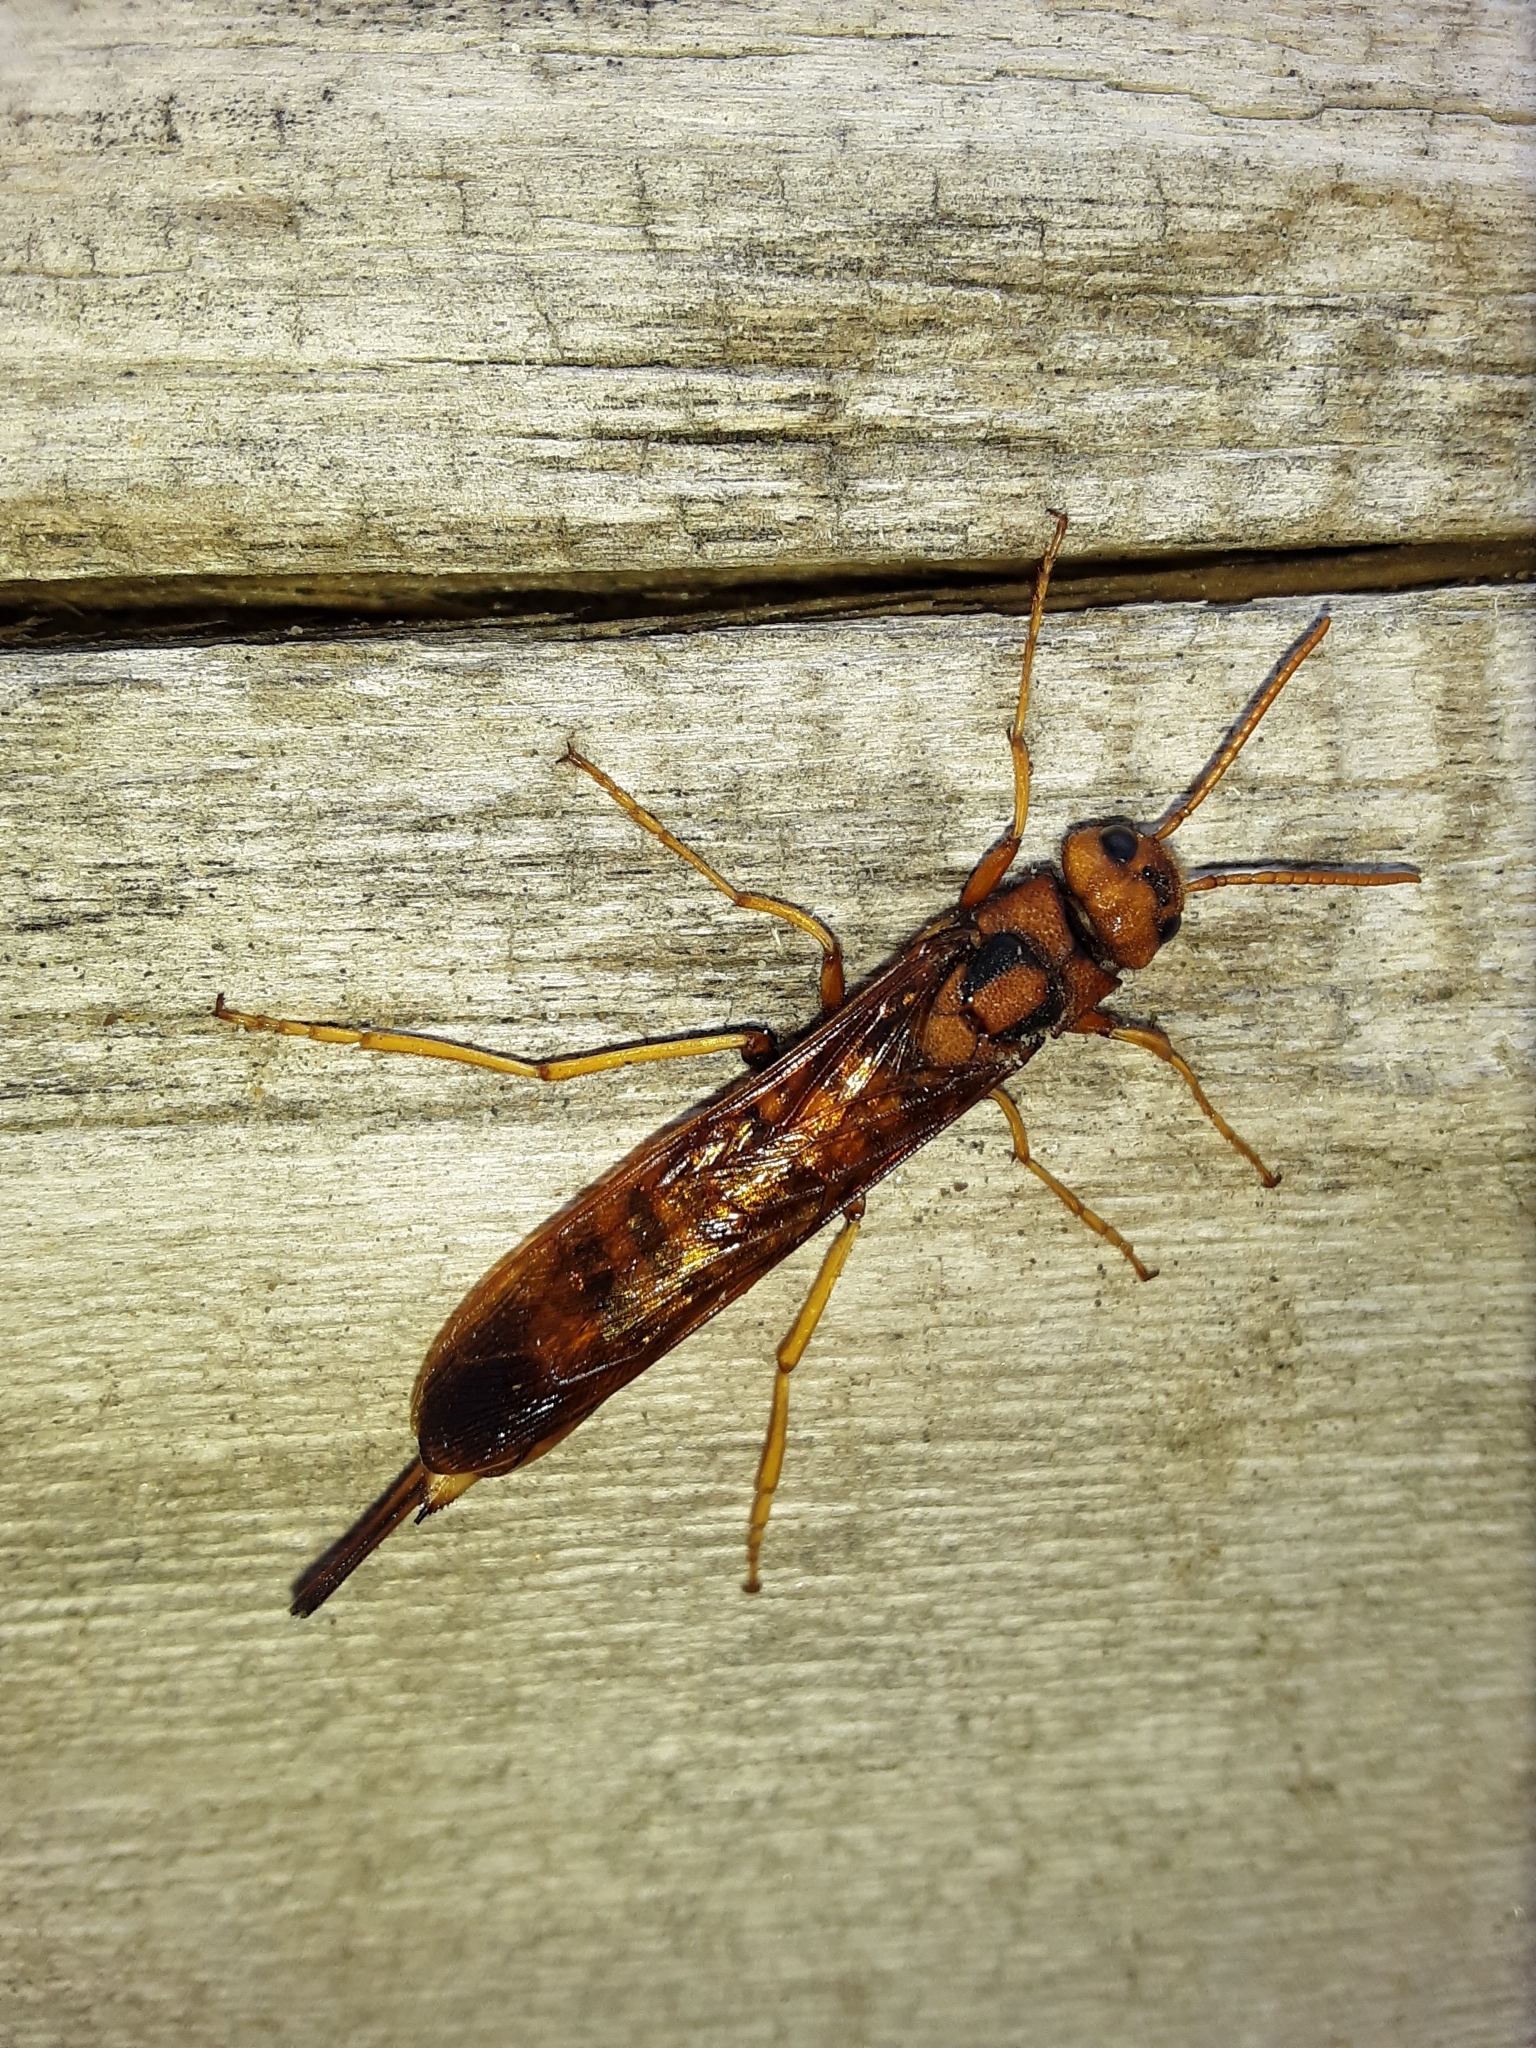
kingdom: Animalia
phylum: Arthropoda
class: Insecta
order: Hymenoptera
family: Siricidae
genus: Tremex
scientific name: Tremex columba
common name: Wasp
